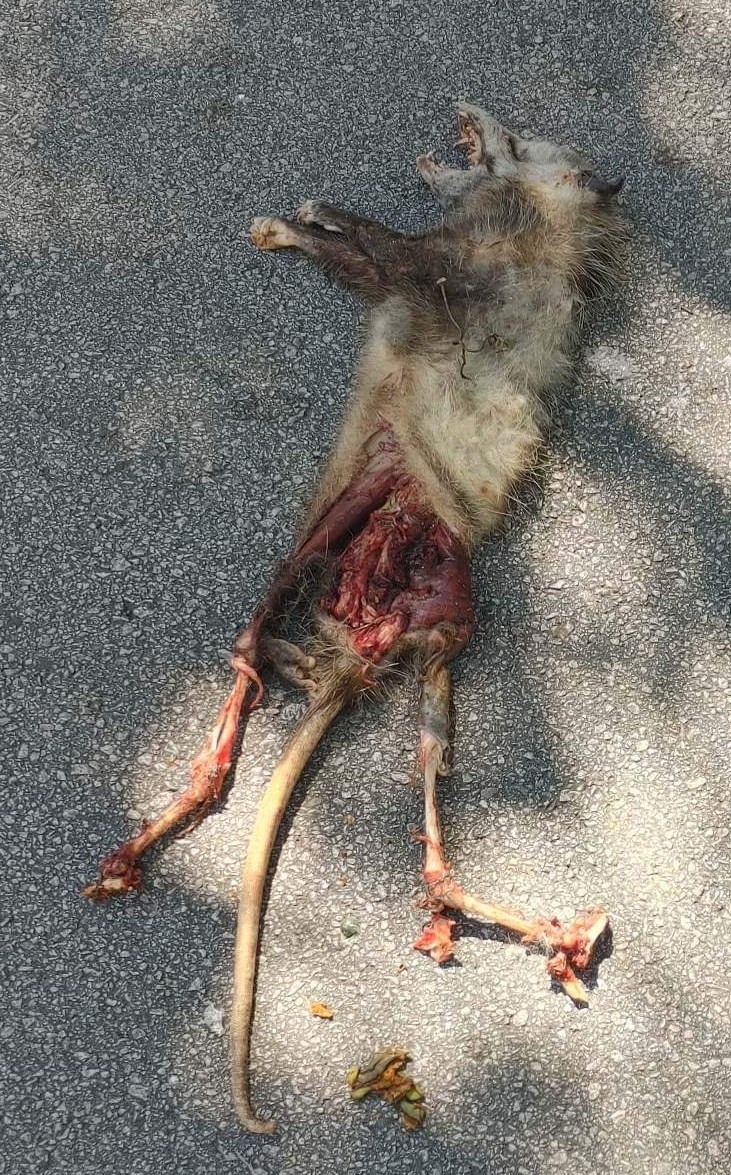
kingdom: Animalia
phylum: Chordata
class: Mammalia
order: Didelphimorphia
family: Didelphidae
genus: Didelphis
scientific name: Didelphis virginiana
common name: Virginia opossum
